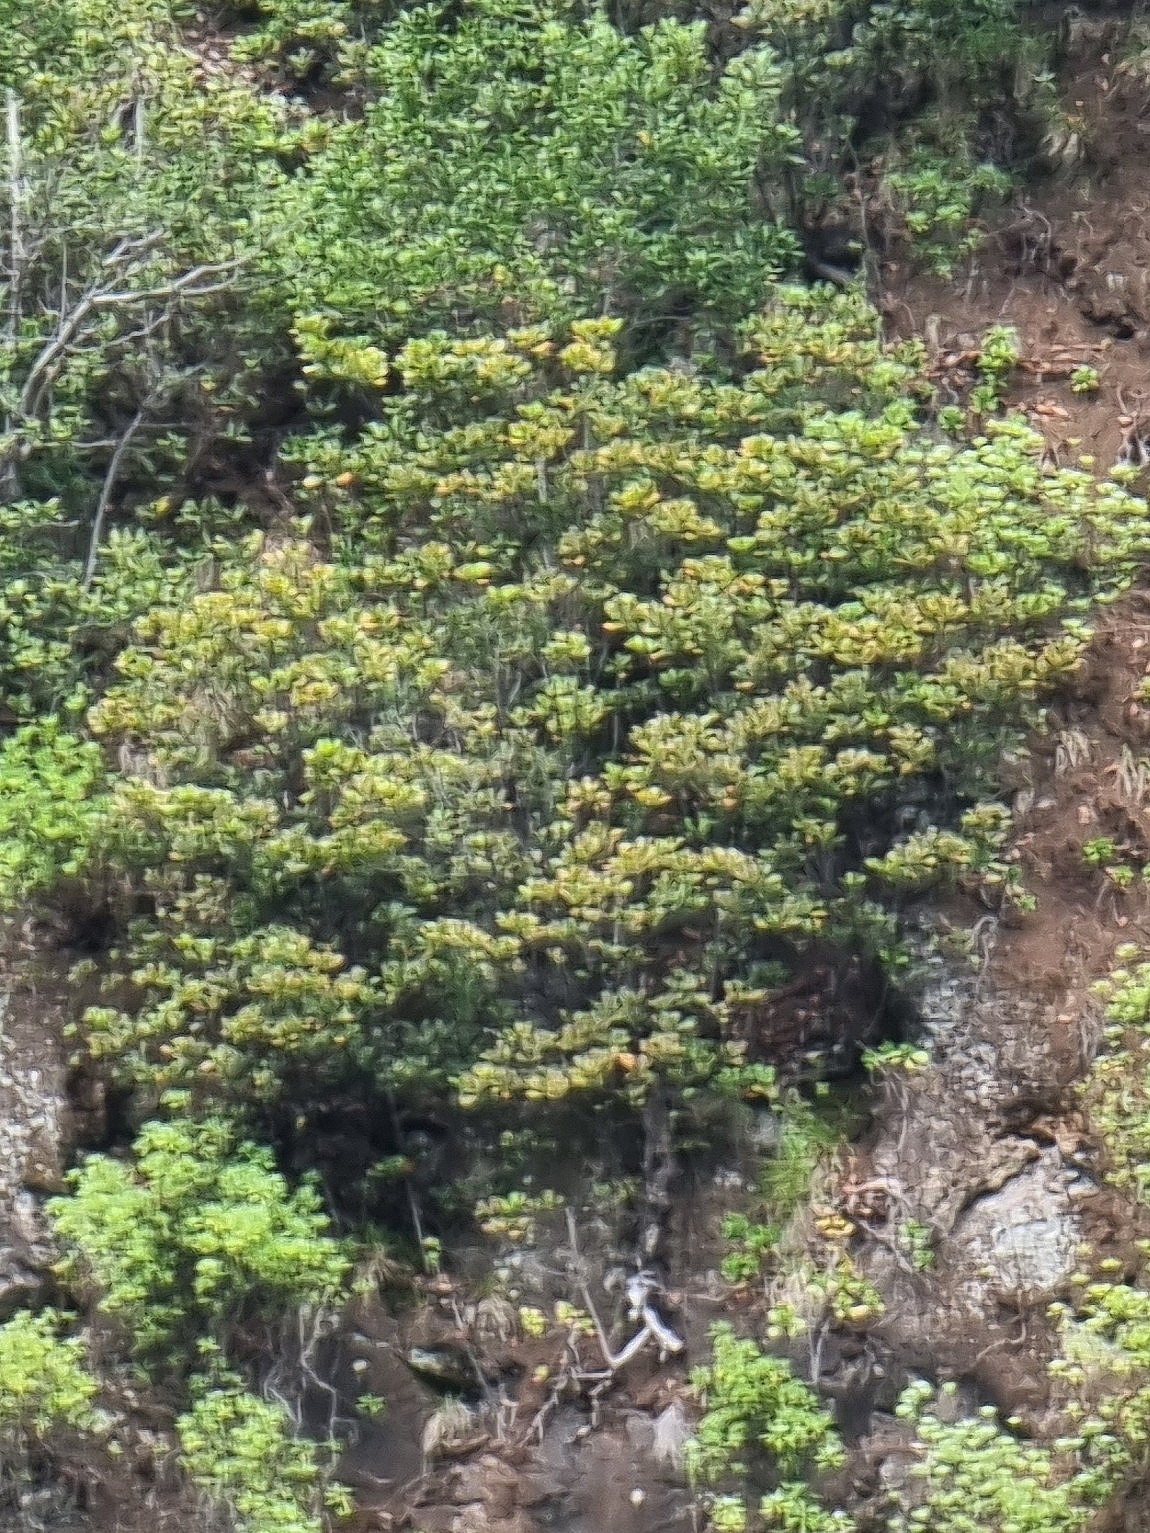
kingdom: Plantae
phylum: Tracheophyta
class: Magnoliopsida
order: Ericales
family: Sapotaceae
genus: Sideroxylon
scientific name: Sideroxylon mirmulans
